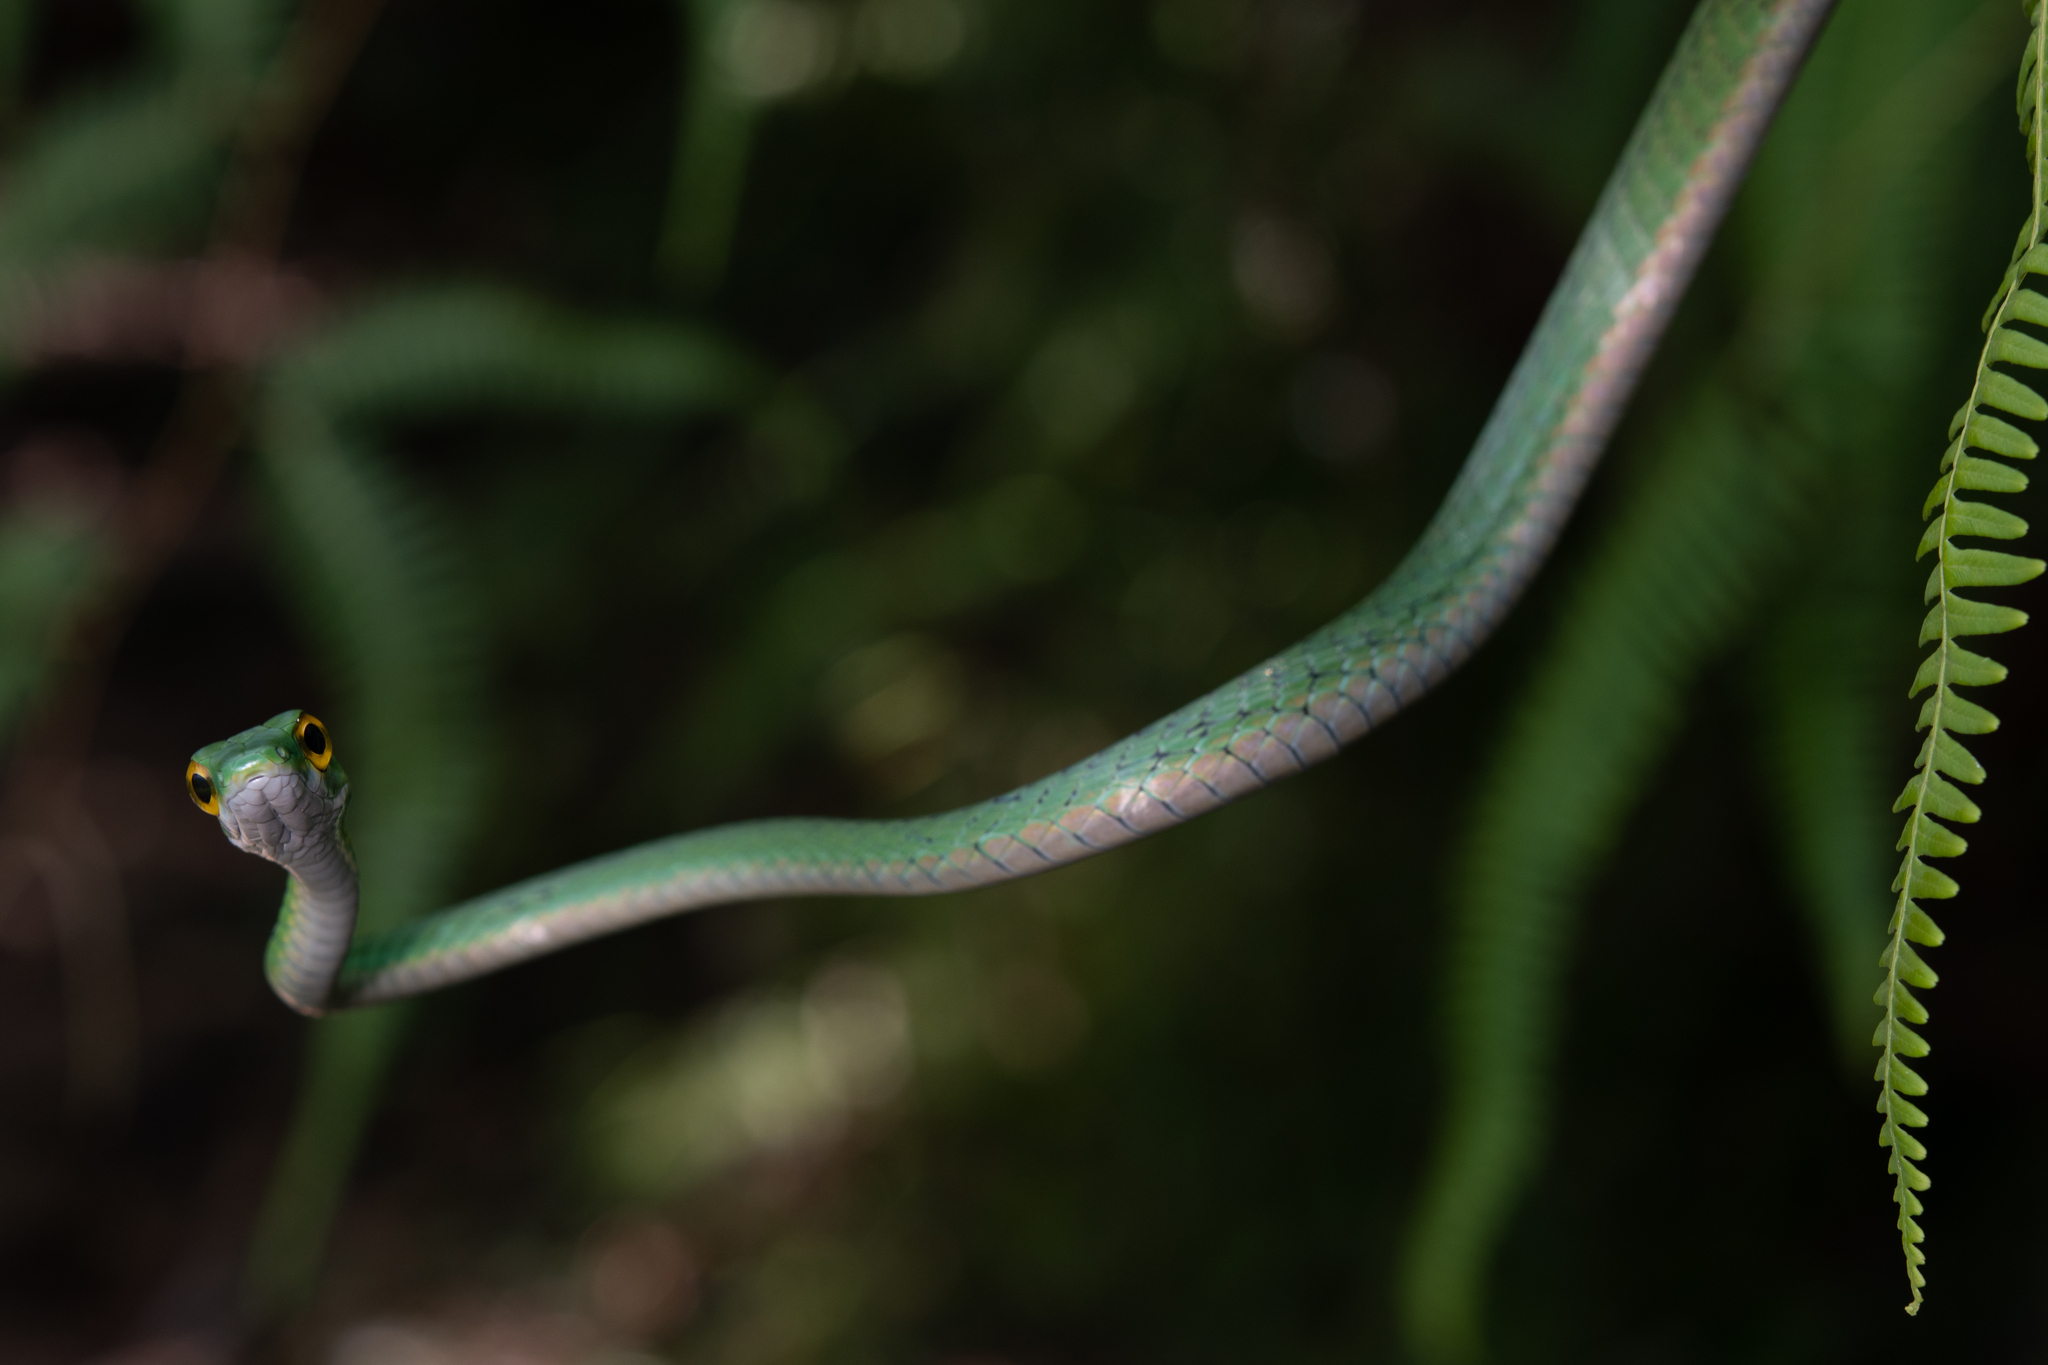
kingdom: Animalia
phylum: Chordata
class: Squamata
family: Colubridae
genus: Leptophis
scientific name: Leptophis ahaetulla
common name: Parrot snake
